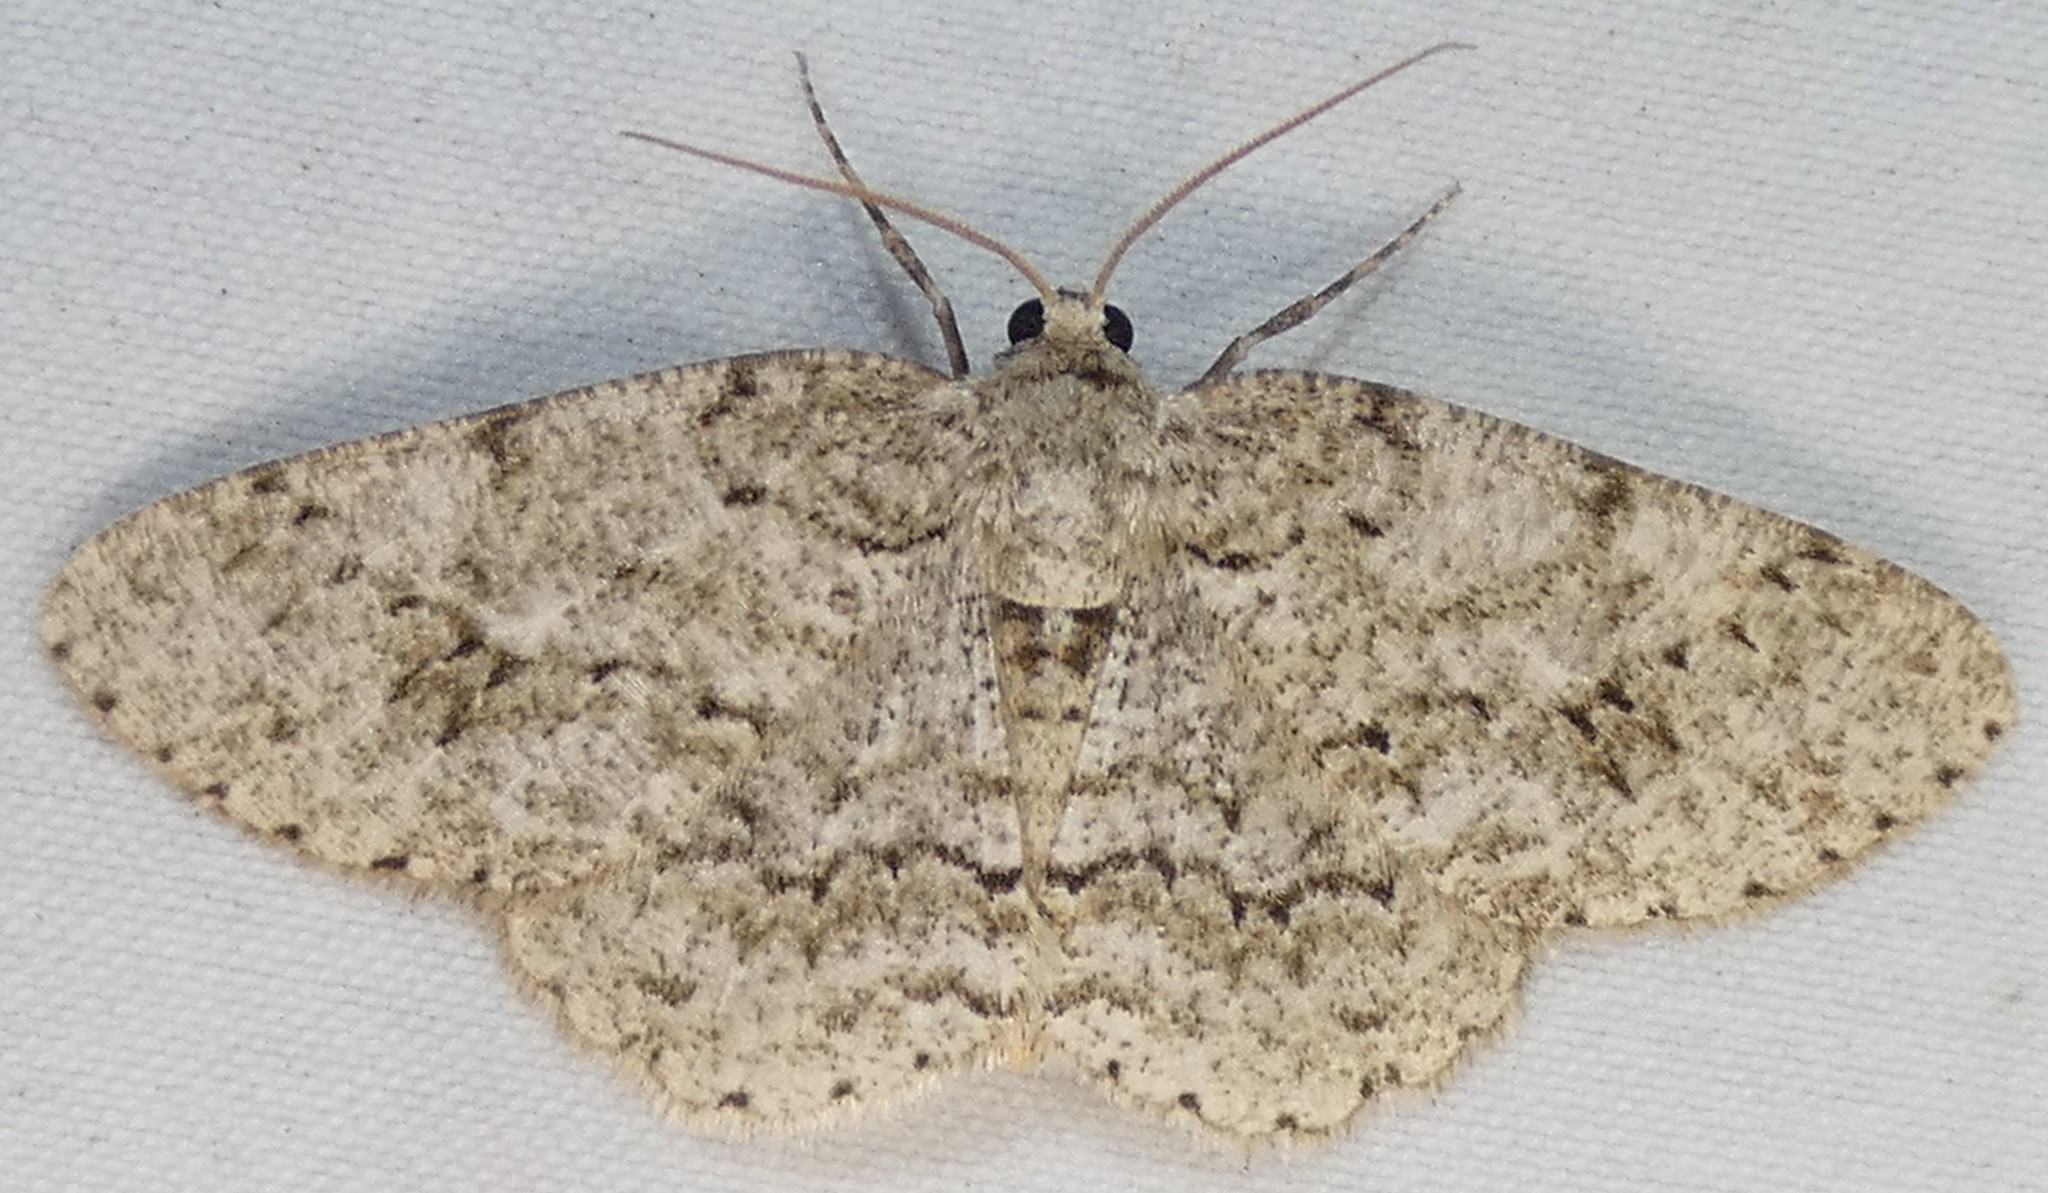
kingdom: Animalia
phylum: Arthropoda
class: Insecta
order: Lepidoptera
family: Geometridae
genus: Ectropis
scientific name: Ectropis crepuscularia
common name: Engrailed
